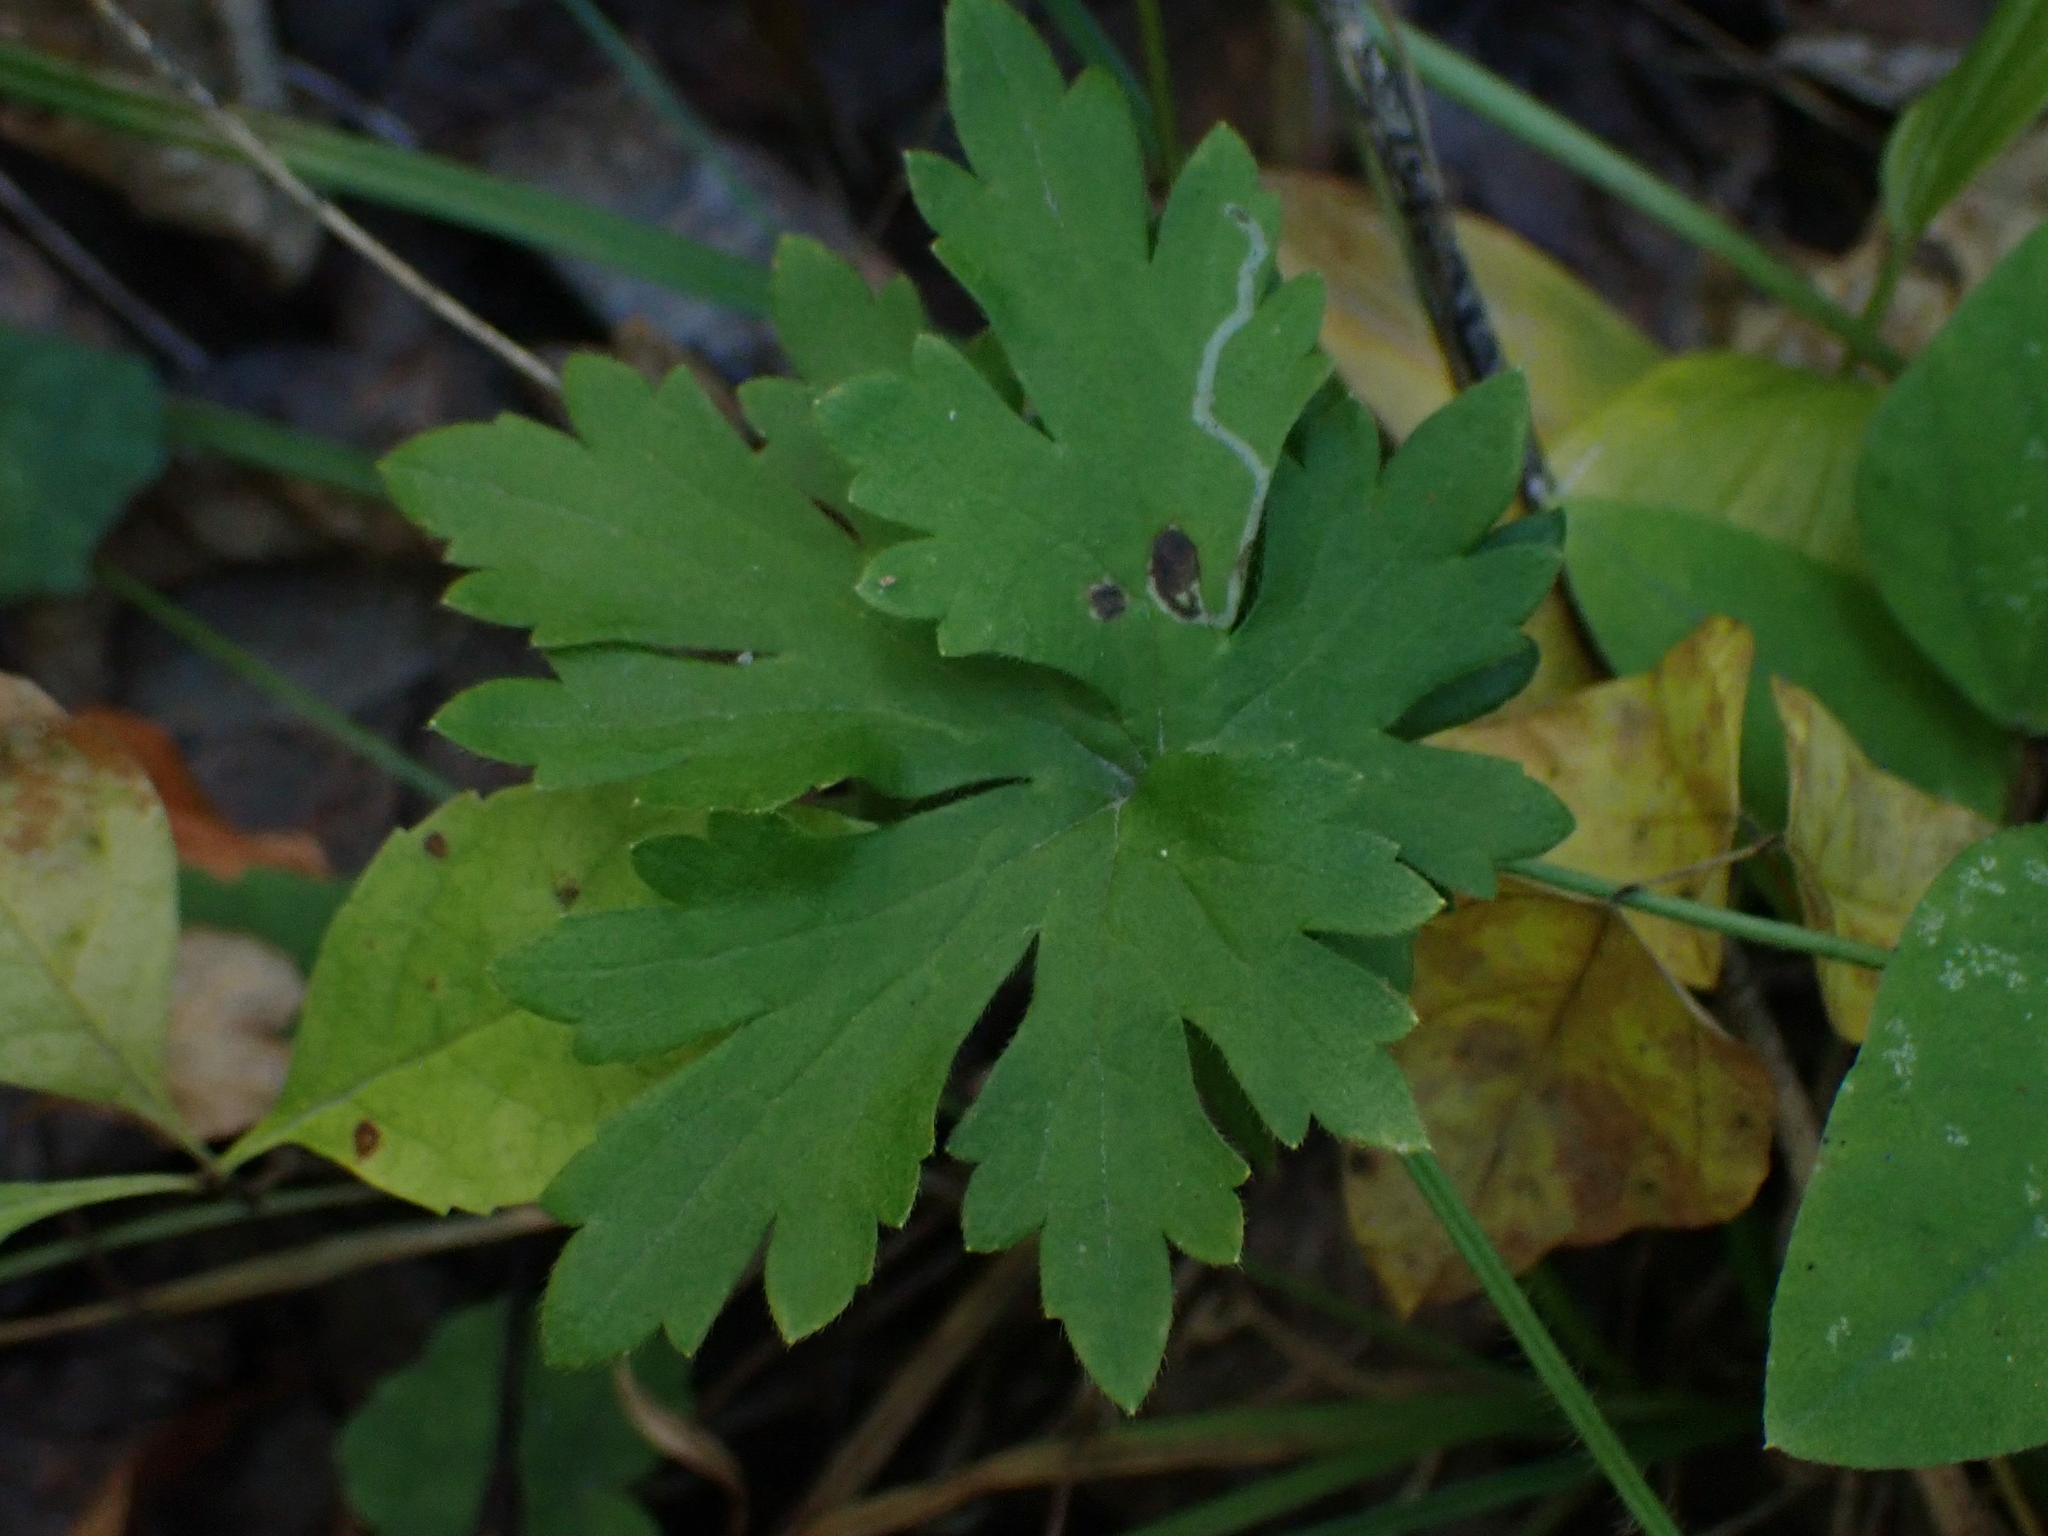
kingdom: Plantae
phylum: Tracheophyta
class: Magnoliopsida
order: Geraniales
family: Geraniaceae
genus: Geranium
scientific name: Geranium bicknellii
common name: Bicknell's cranesbill
